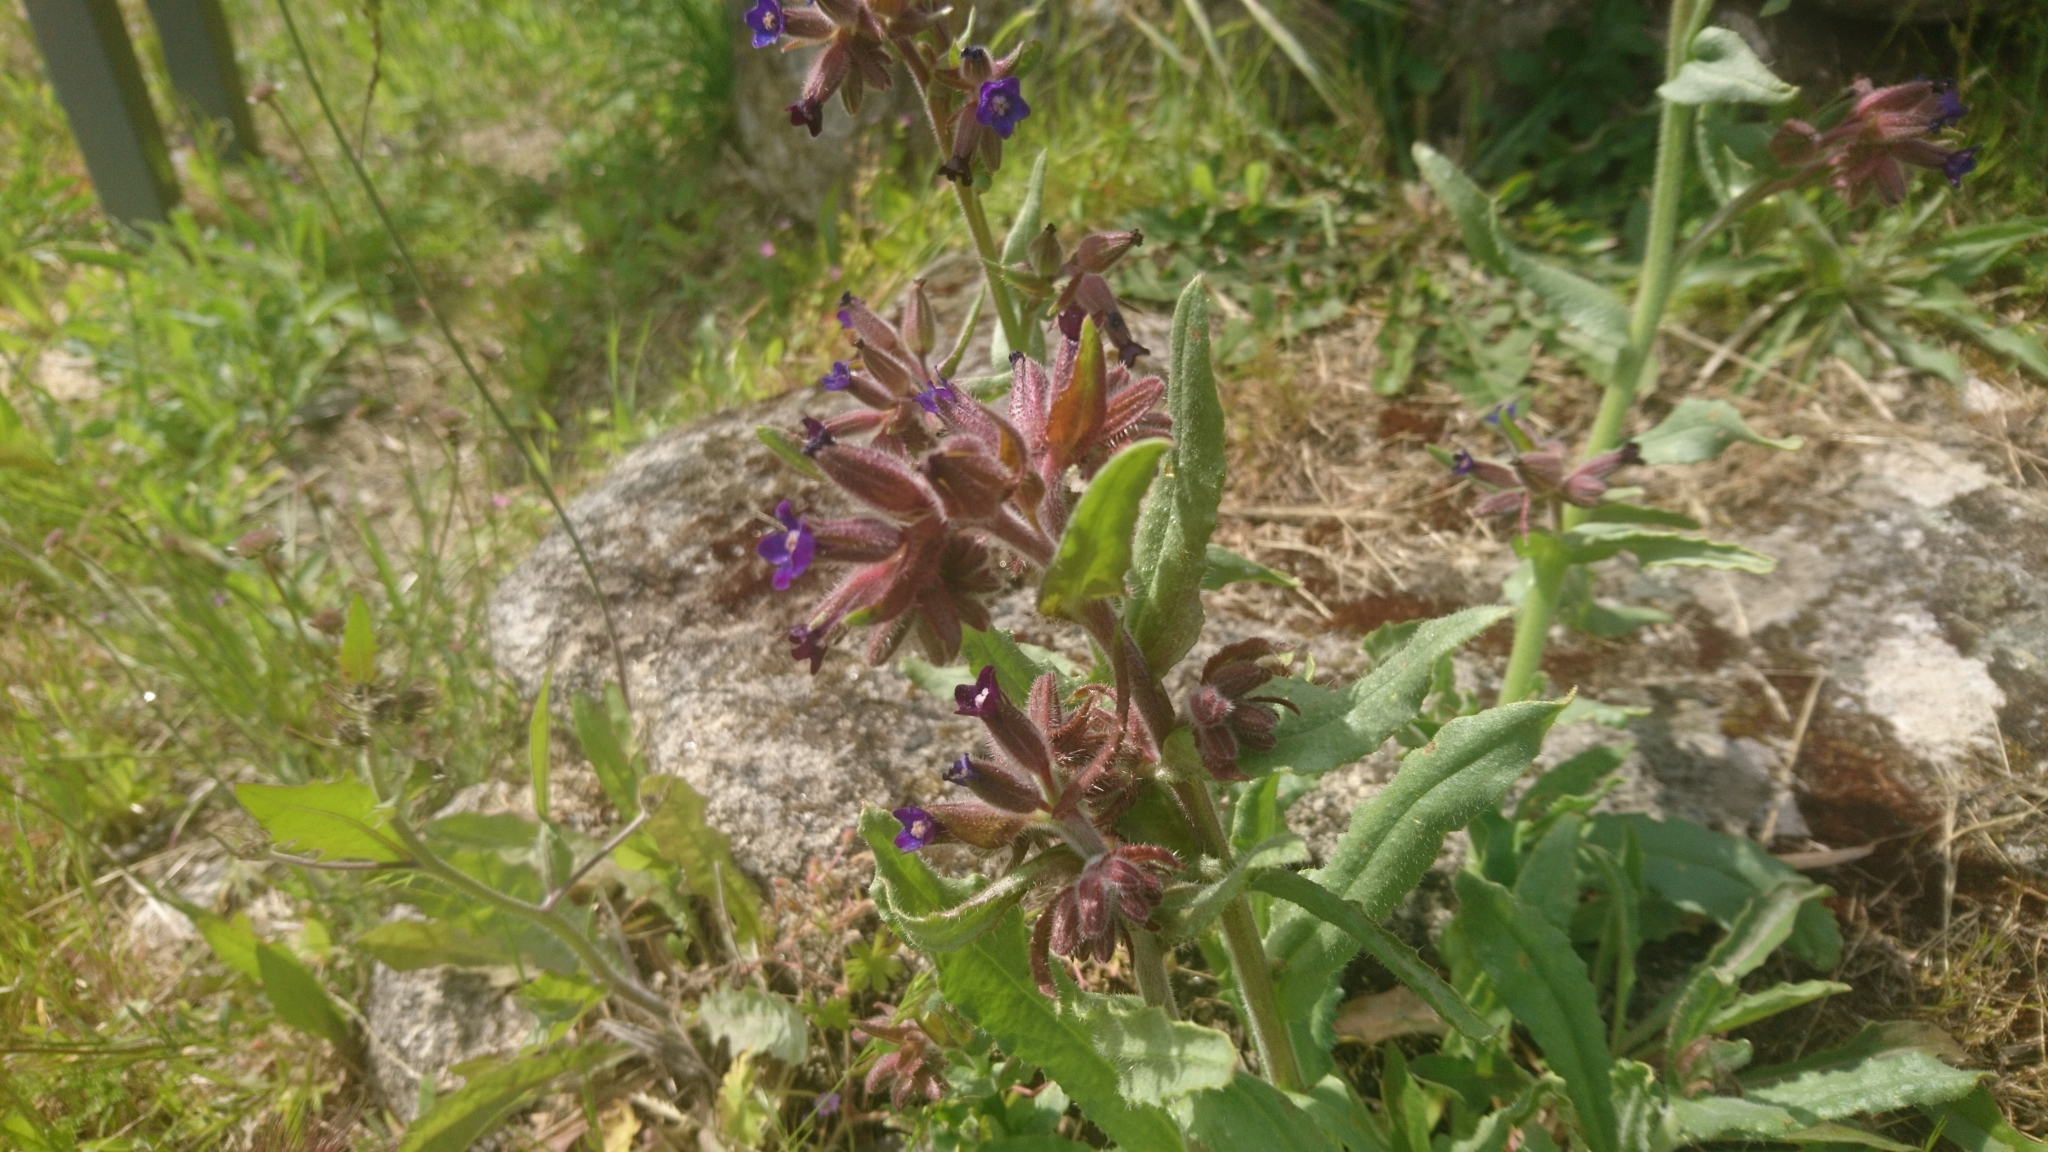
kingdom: Plantae
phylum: Tracheophyta
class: Magnoliopsida
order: Boraginales
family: Boraginaceae
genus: Anchusa
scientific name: Anchusa undulata
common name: Undulate alkanet
